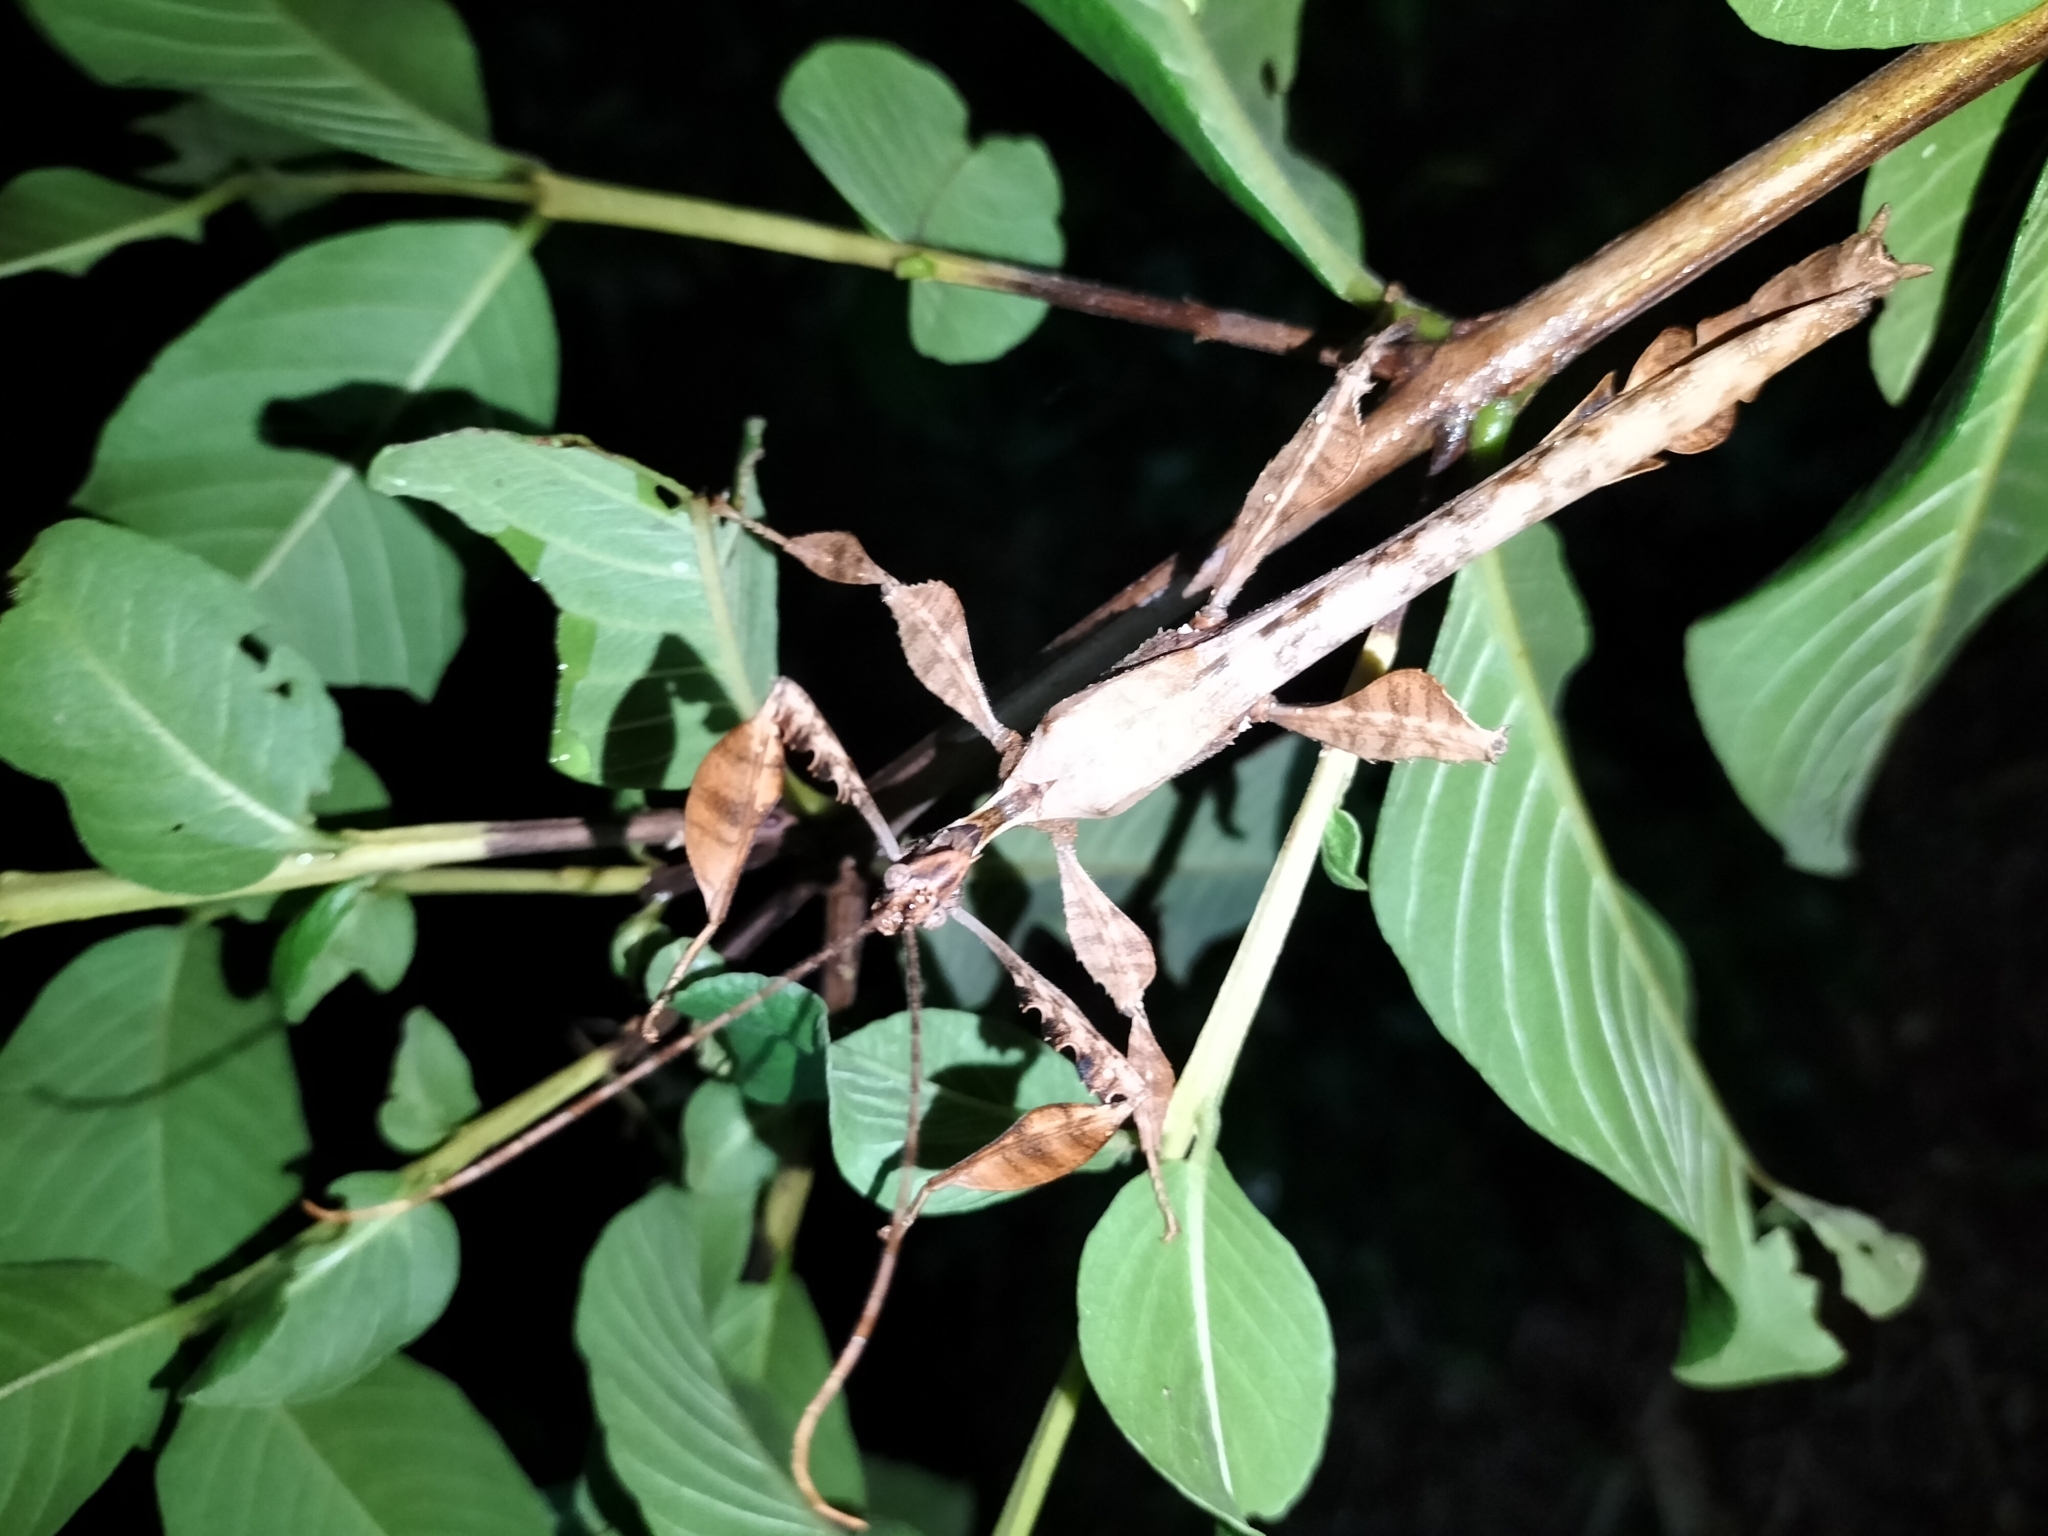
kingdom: Animalia
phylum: Arthropoda
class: Insecta
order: Phasmida
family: Phasmatidae
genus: Extatosoma
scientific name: Extatosoma tiaratum
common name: Macleay's spectre
